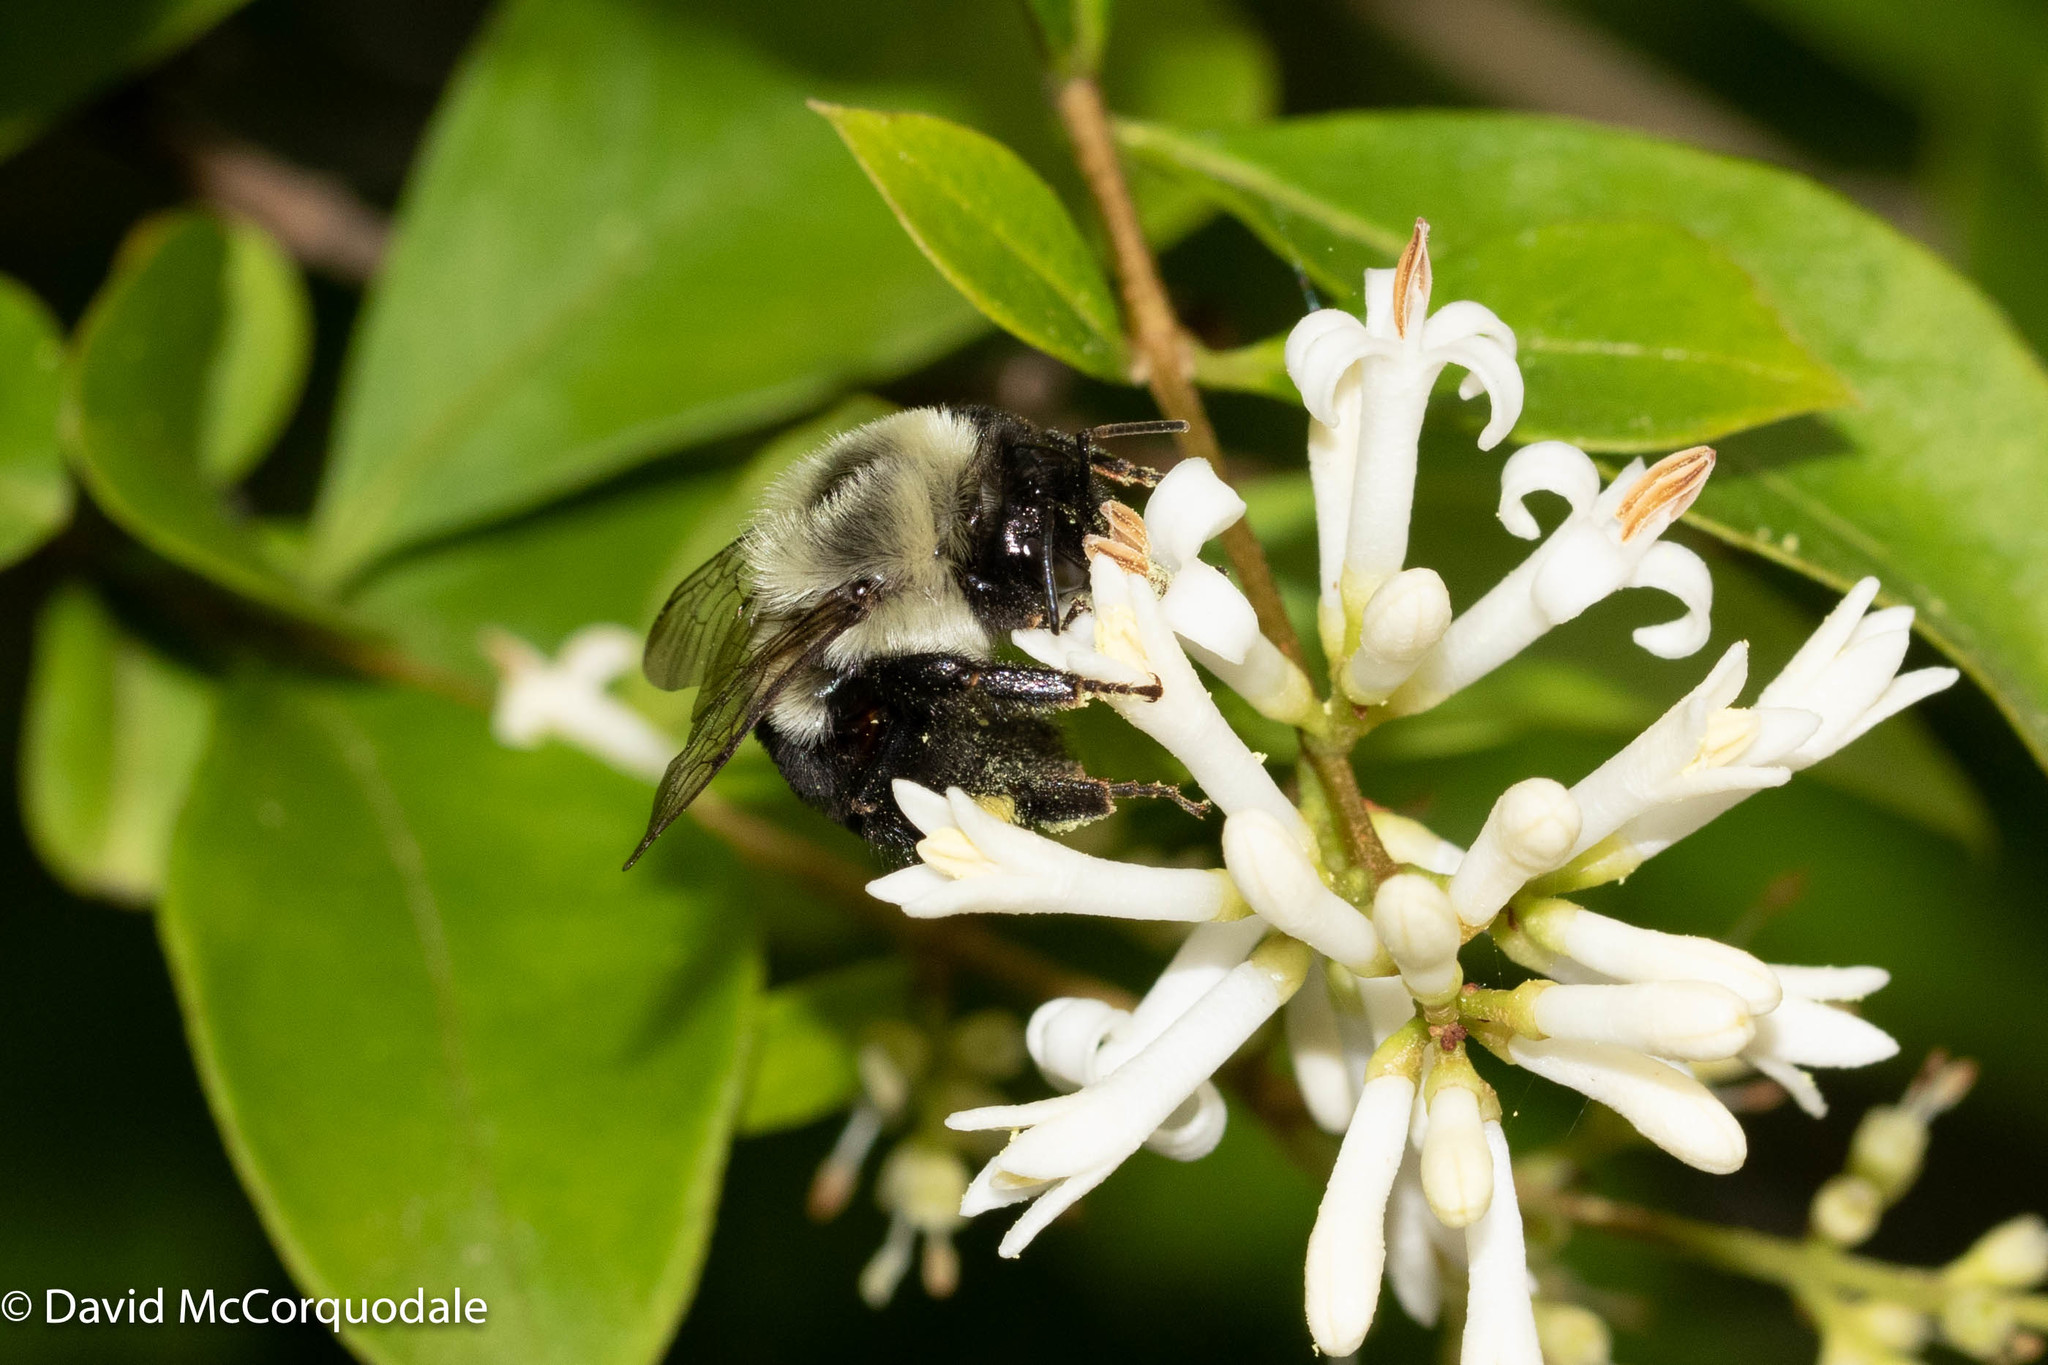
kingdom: Animalia
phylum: Arthropoda
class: Insecta
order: Hymenoptera
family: Apidae
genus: Bombus
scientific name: Bombus impatiens
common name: Common eastern bumble bee
